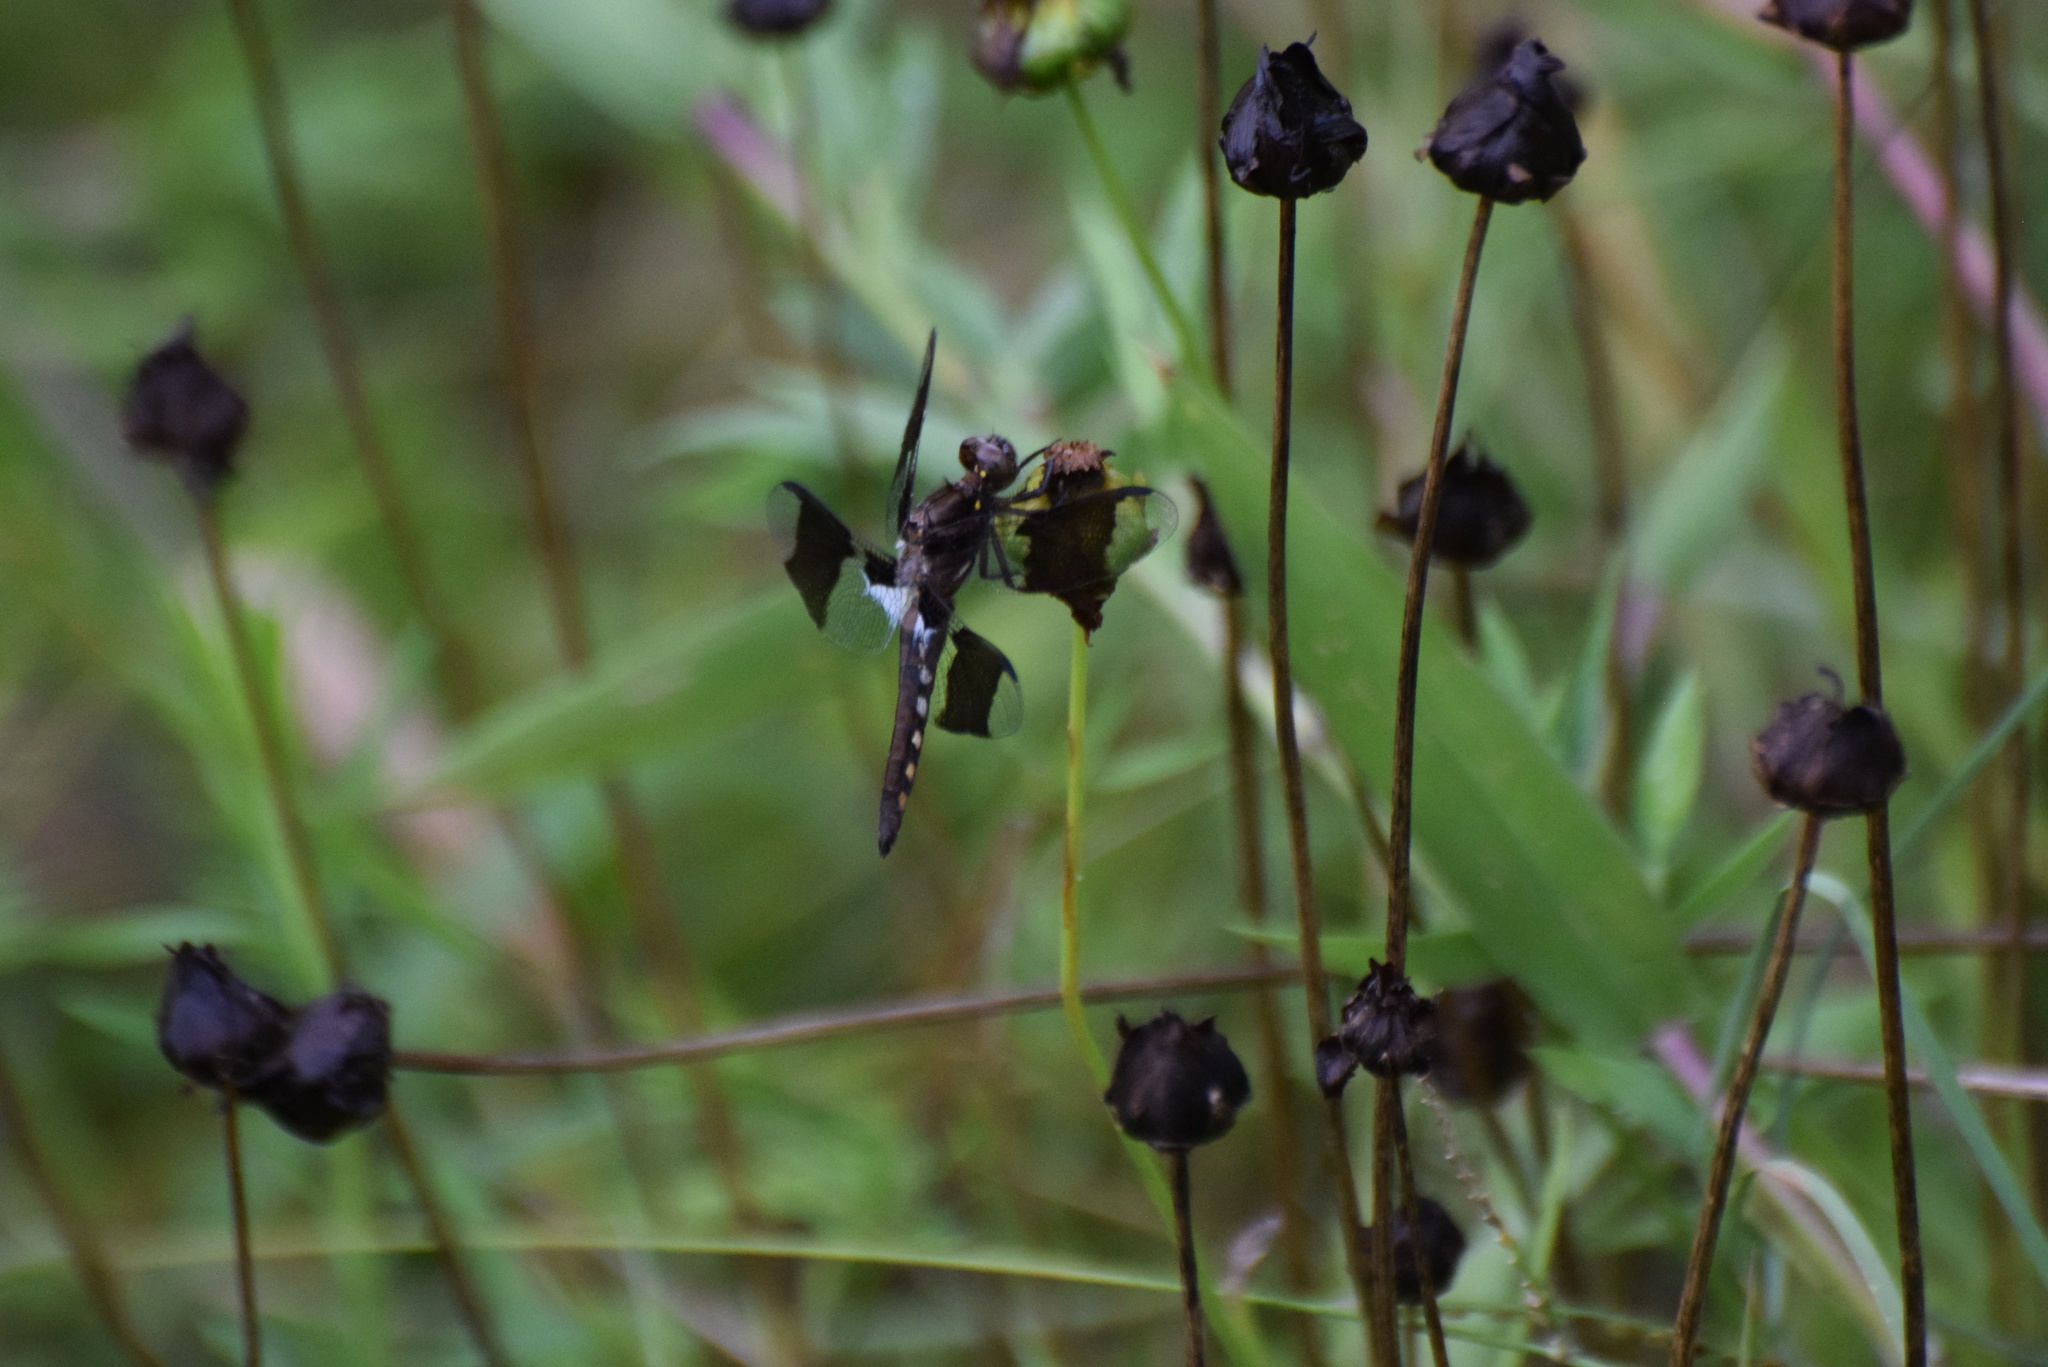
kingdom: Animalia
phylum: Arthropoda
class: Insecta
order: Odonata
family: Libellulidae
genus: Plathemis
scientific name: Plathemis lydia
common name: Common whitetail
